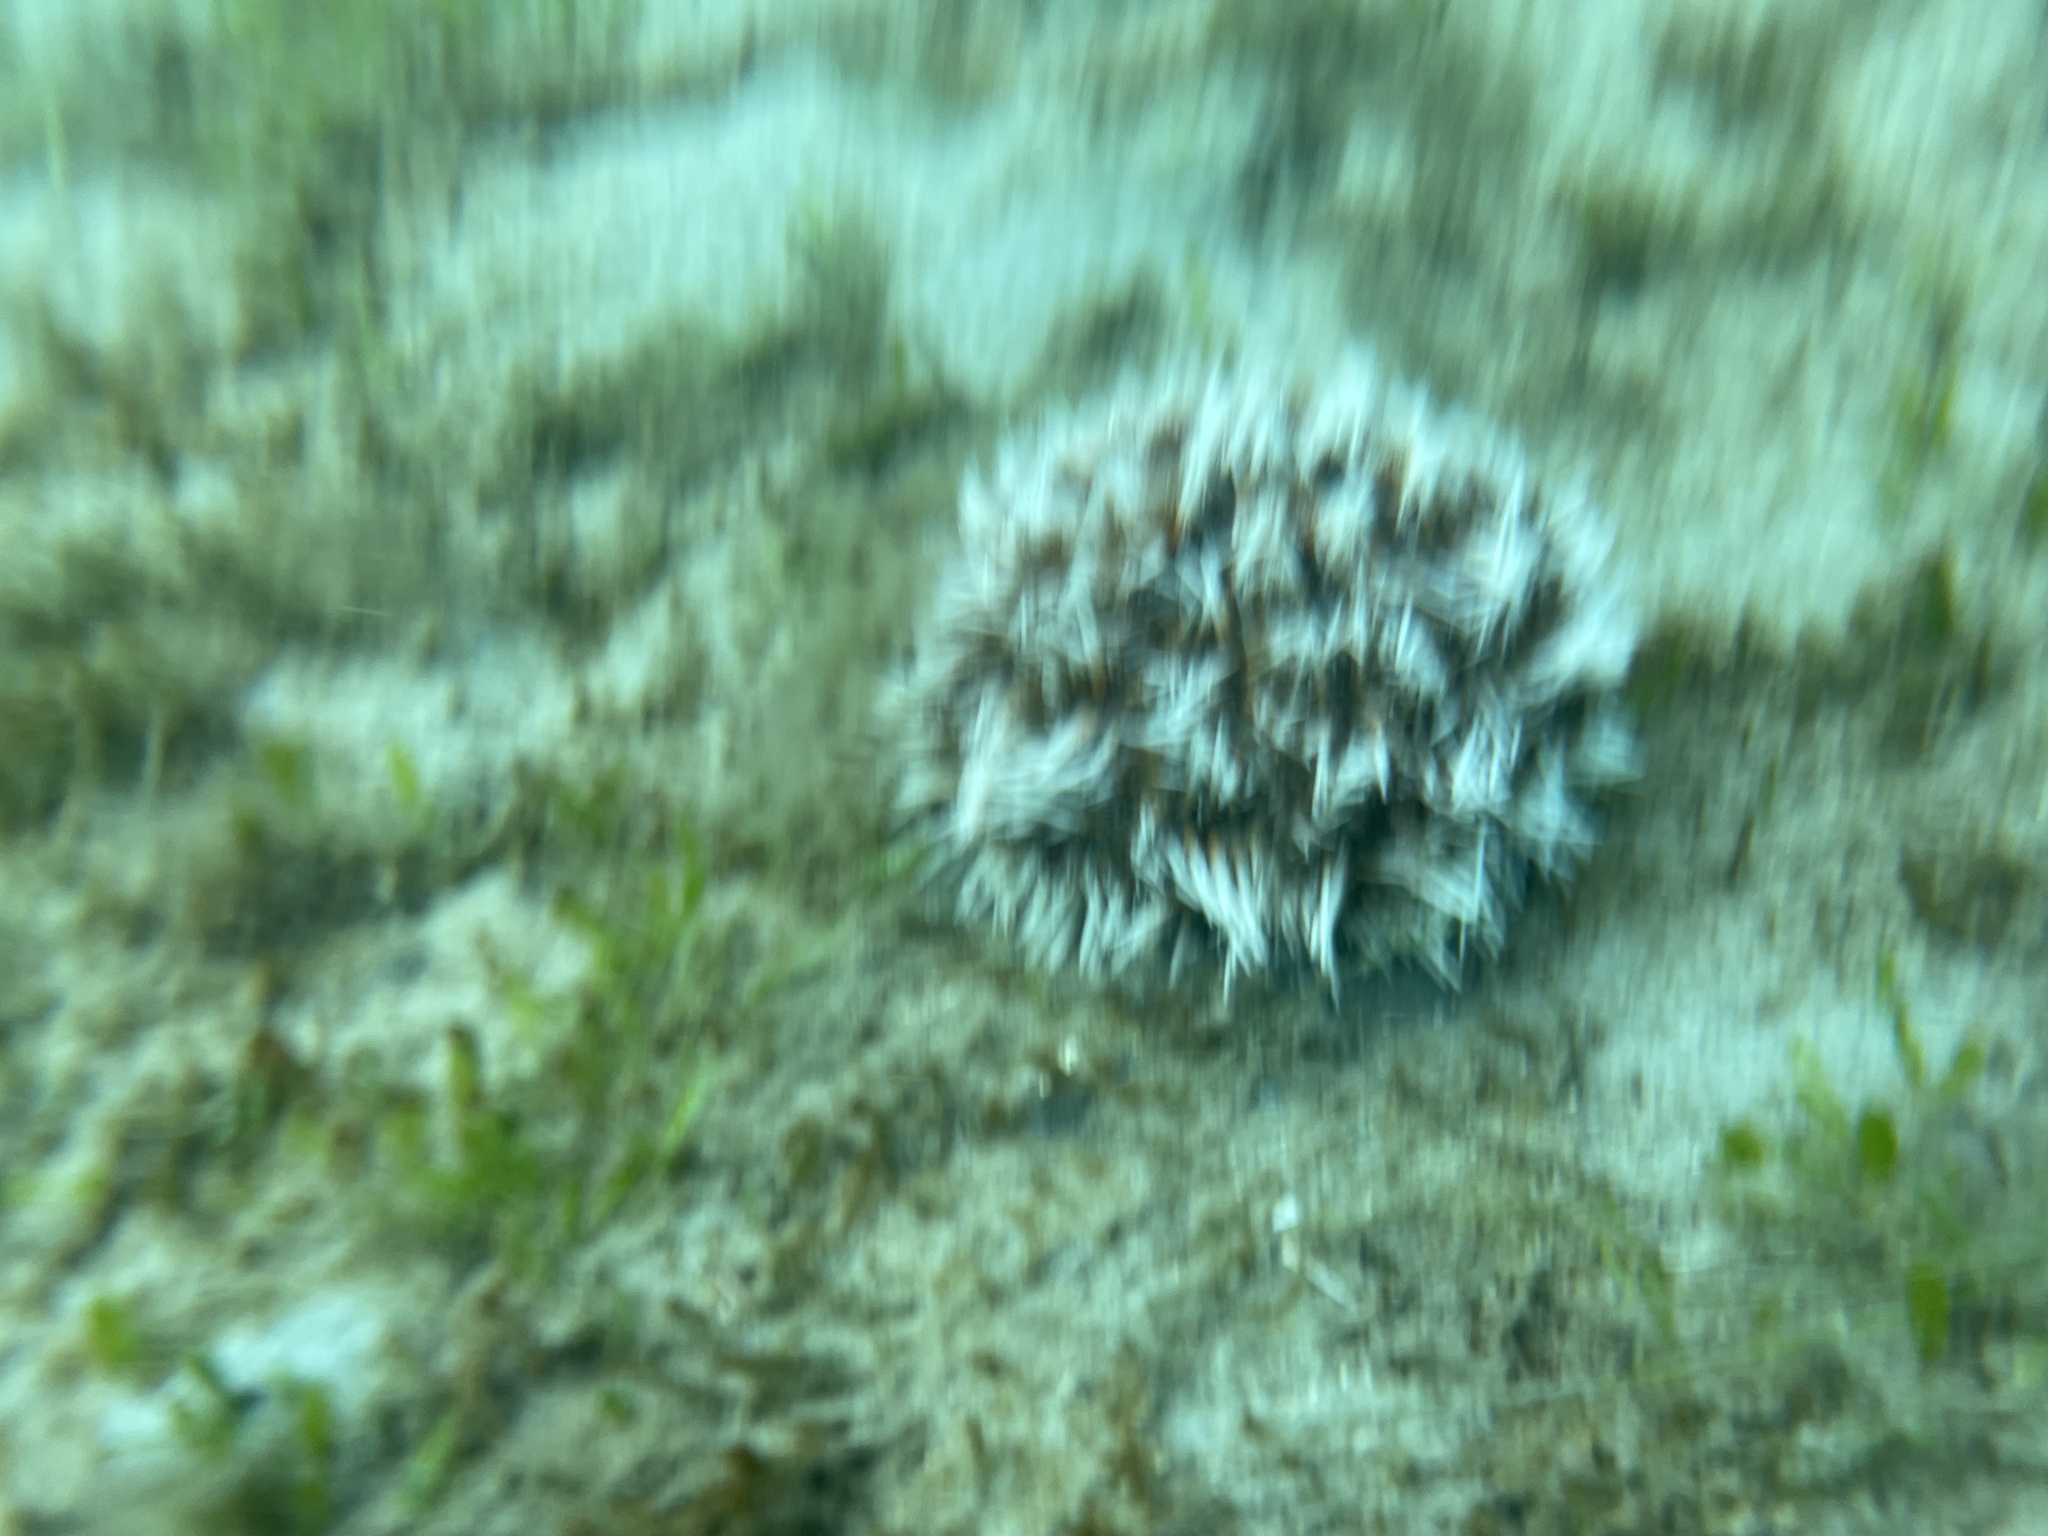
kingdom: Animalia
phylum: Echinodermata
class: Echinoidea
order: Camarodonta
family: Toxopneustidae
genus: Tripneustes
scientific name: Tripneustes ventricosus
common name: West indian sea egg
